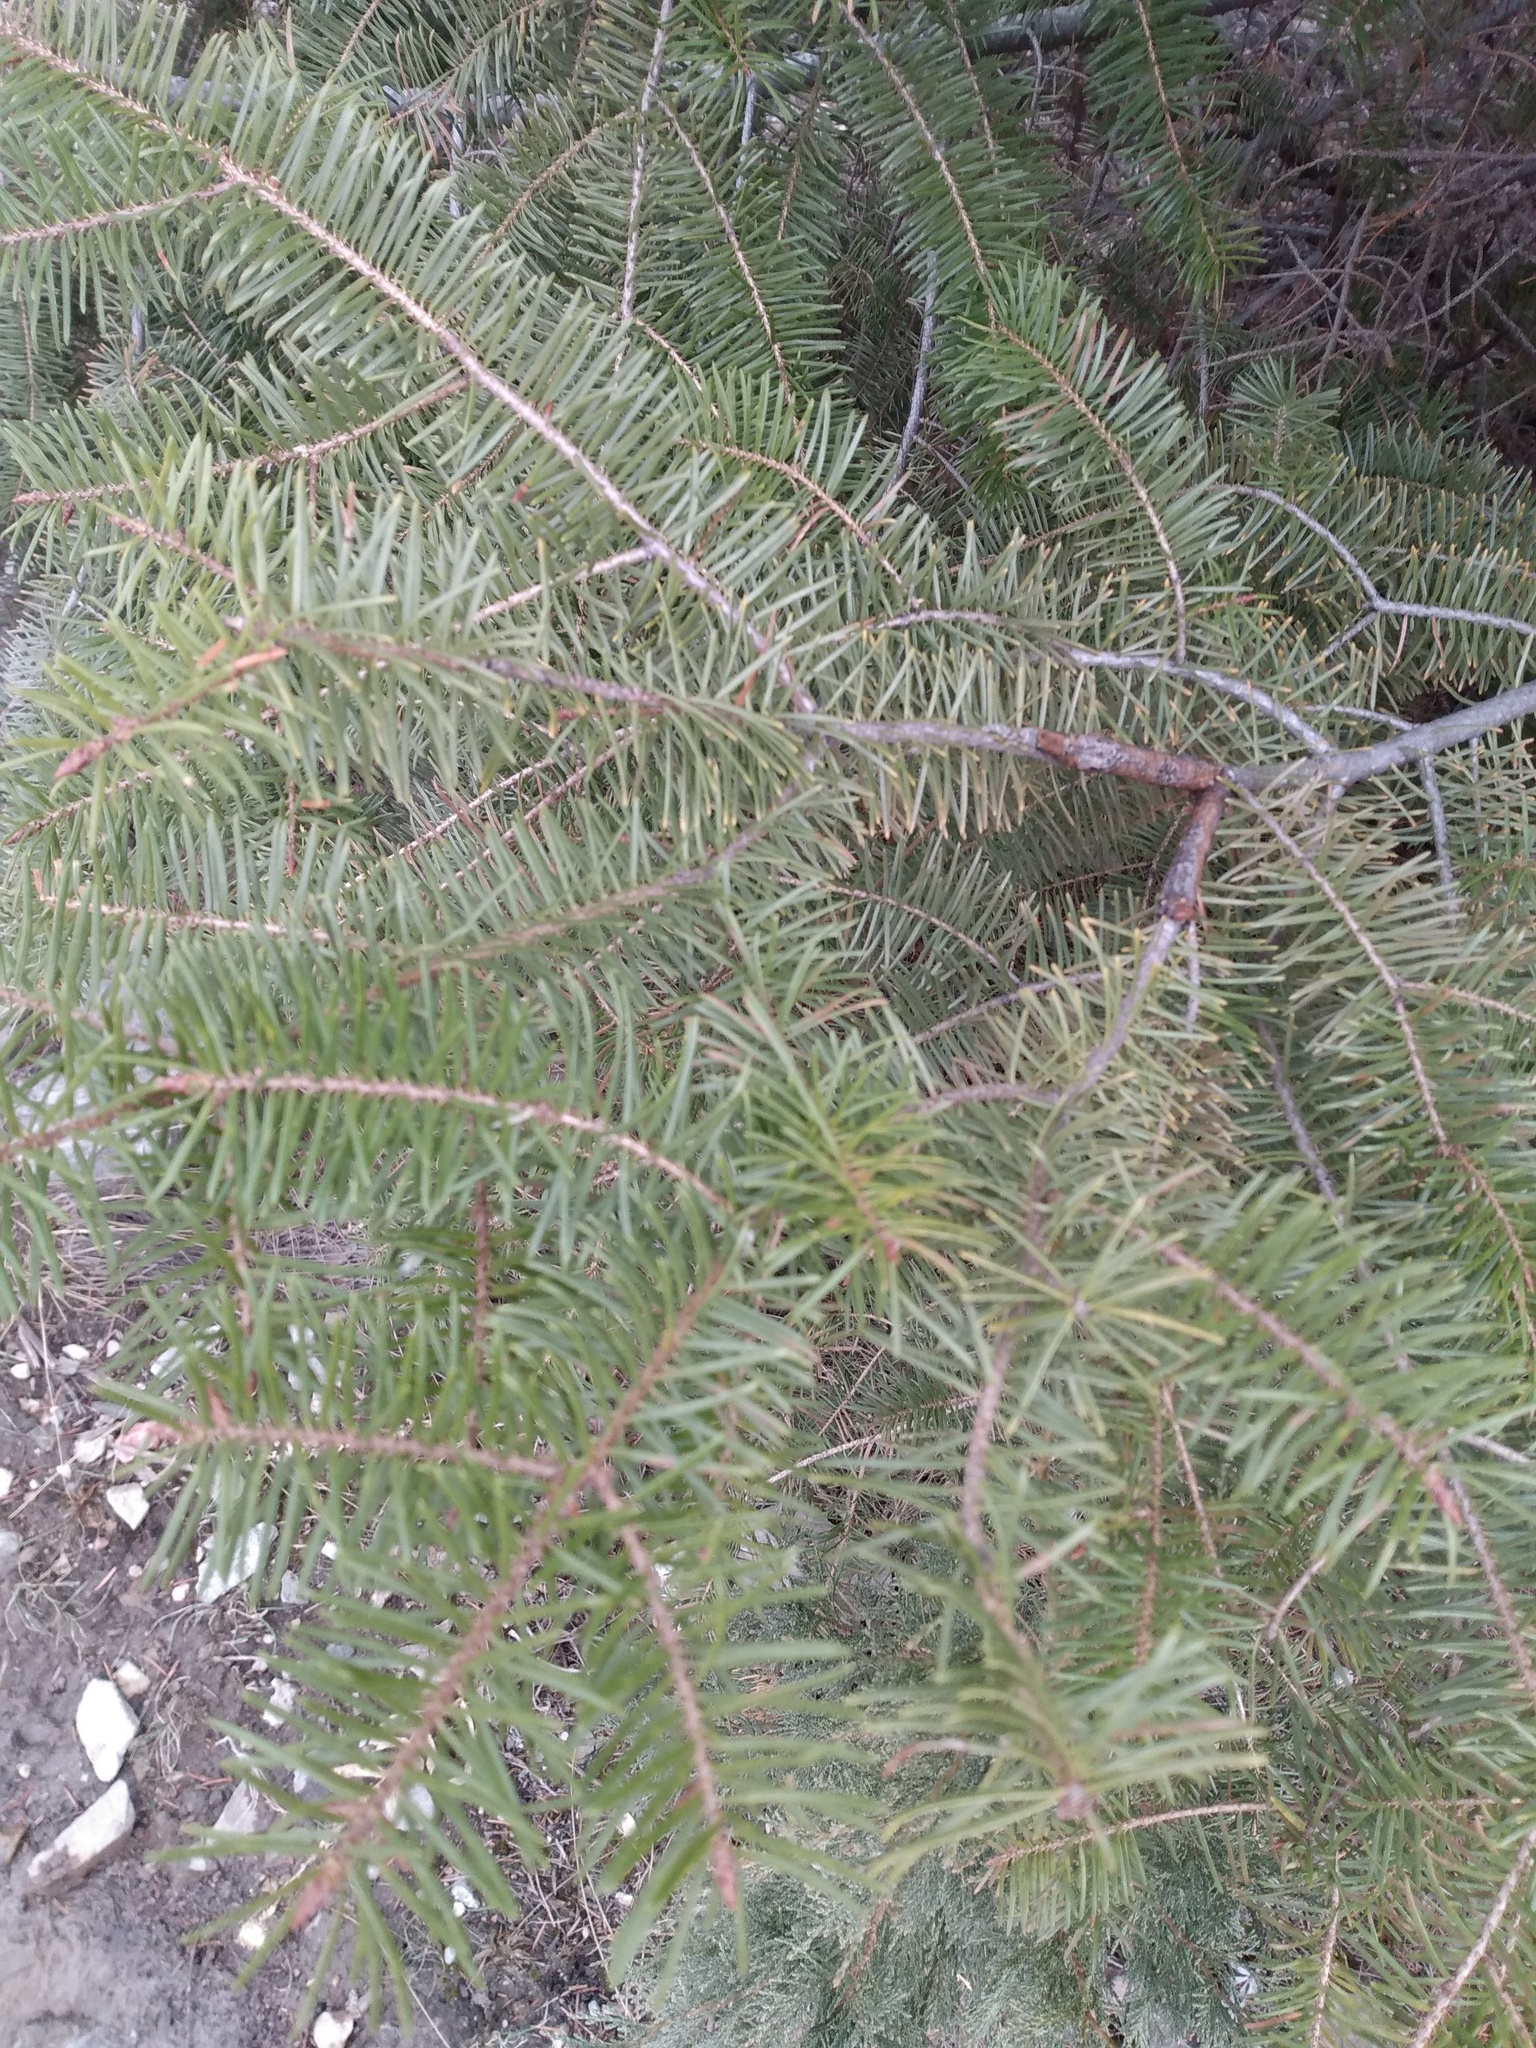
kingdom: Plantae
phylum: Tracheophyta
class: Pinopsida
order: Pinales
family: Pinaceae
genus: Pseudotsuga
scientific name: Pseudotsuga menziesii
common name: Douglas fir
